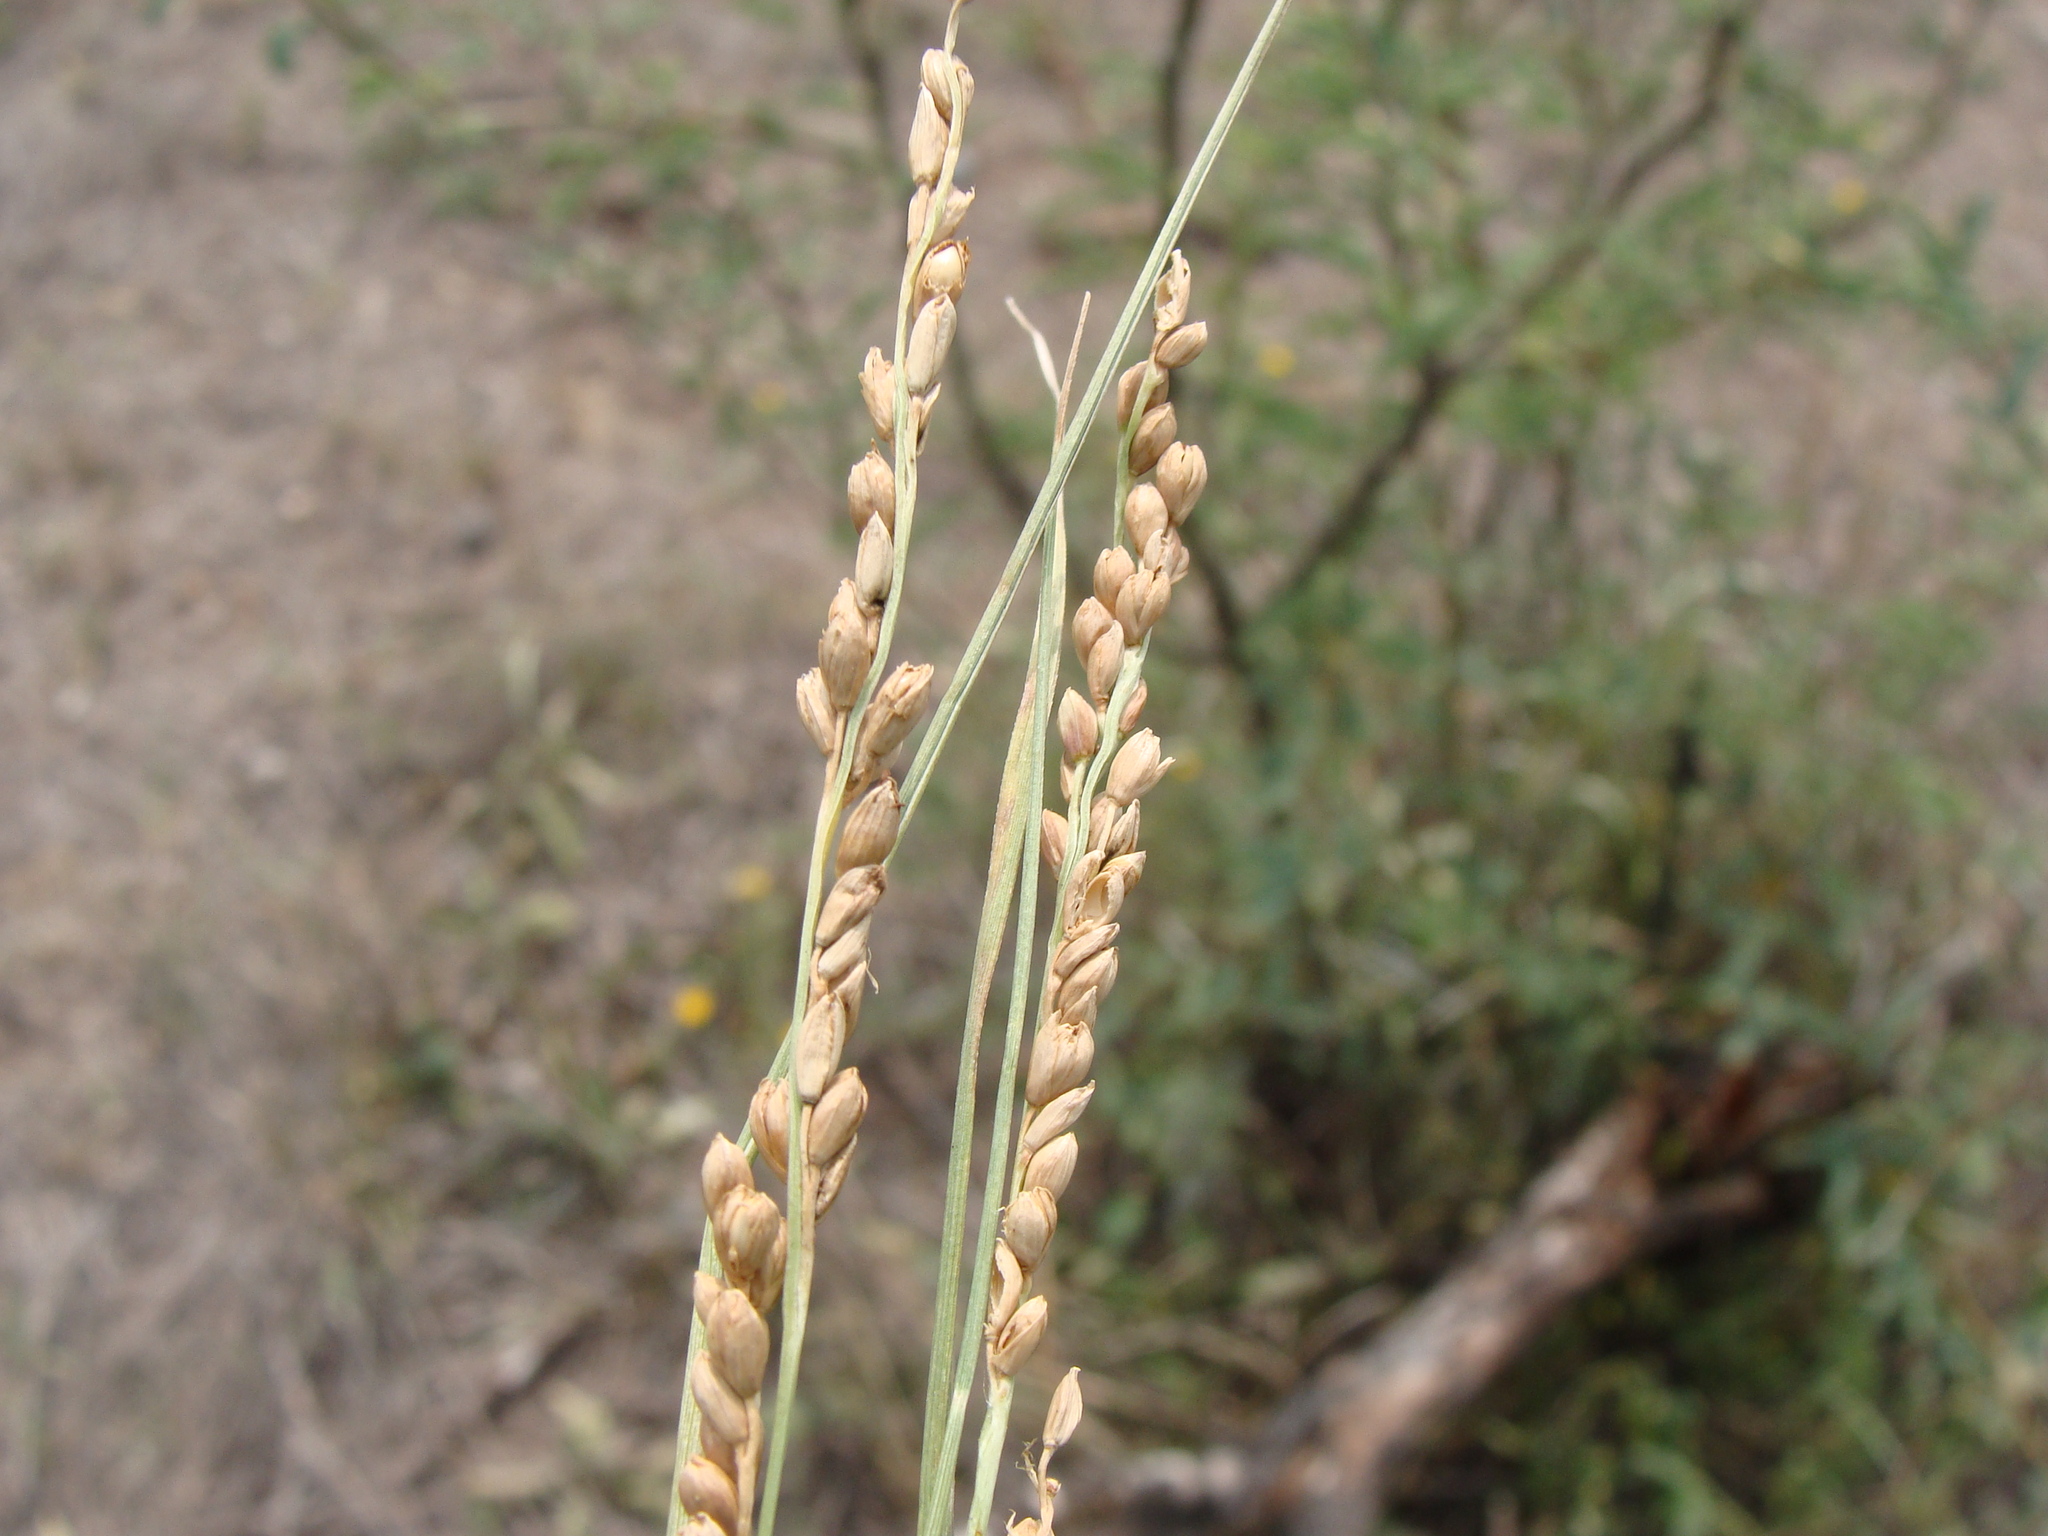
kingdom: Plantae
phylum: Tracheophyta
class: Liliopsida
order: Poales
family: Poaceae
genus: Hopia
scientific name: Hopia obtusa
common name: Vine-mesquite
